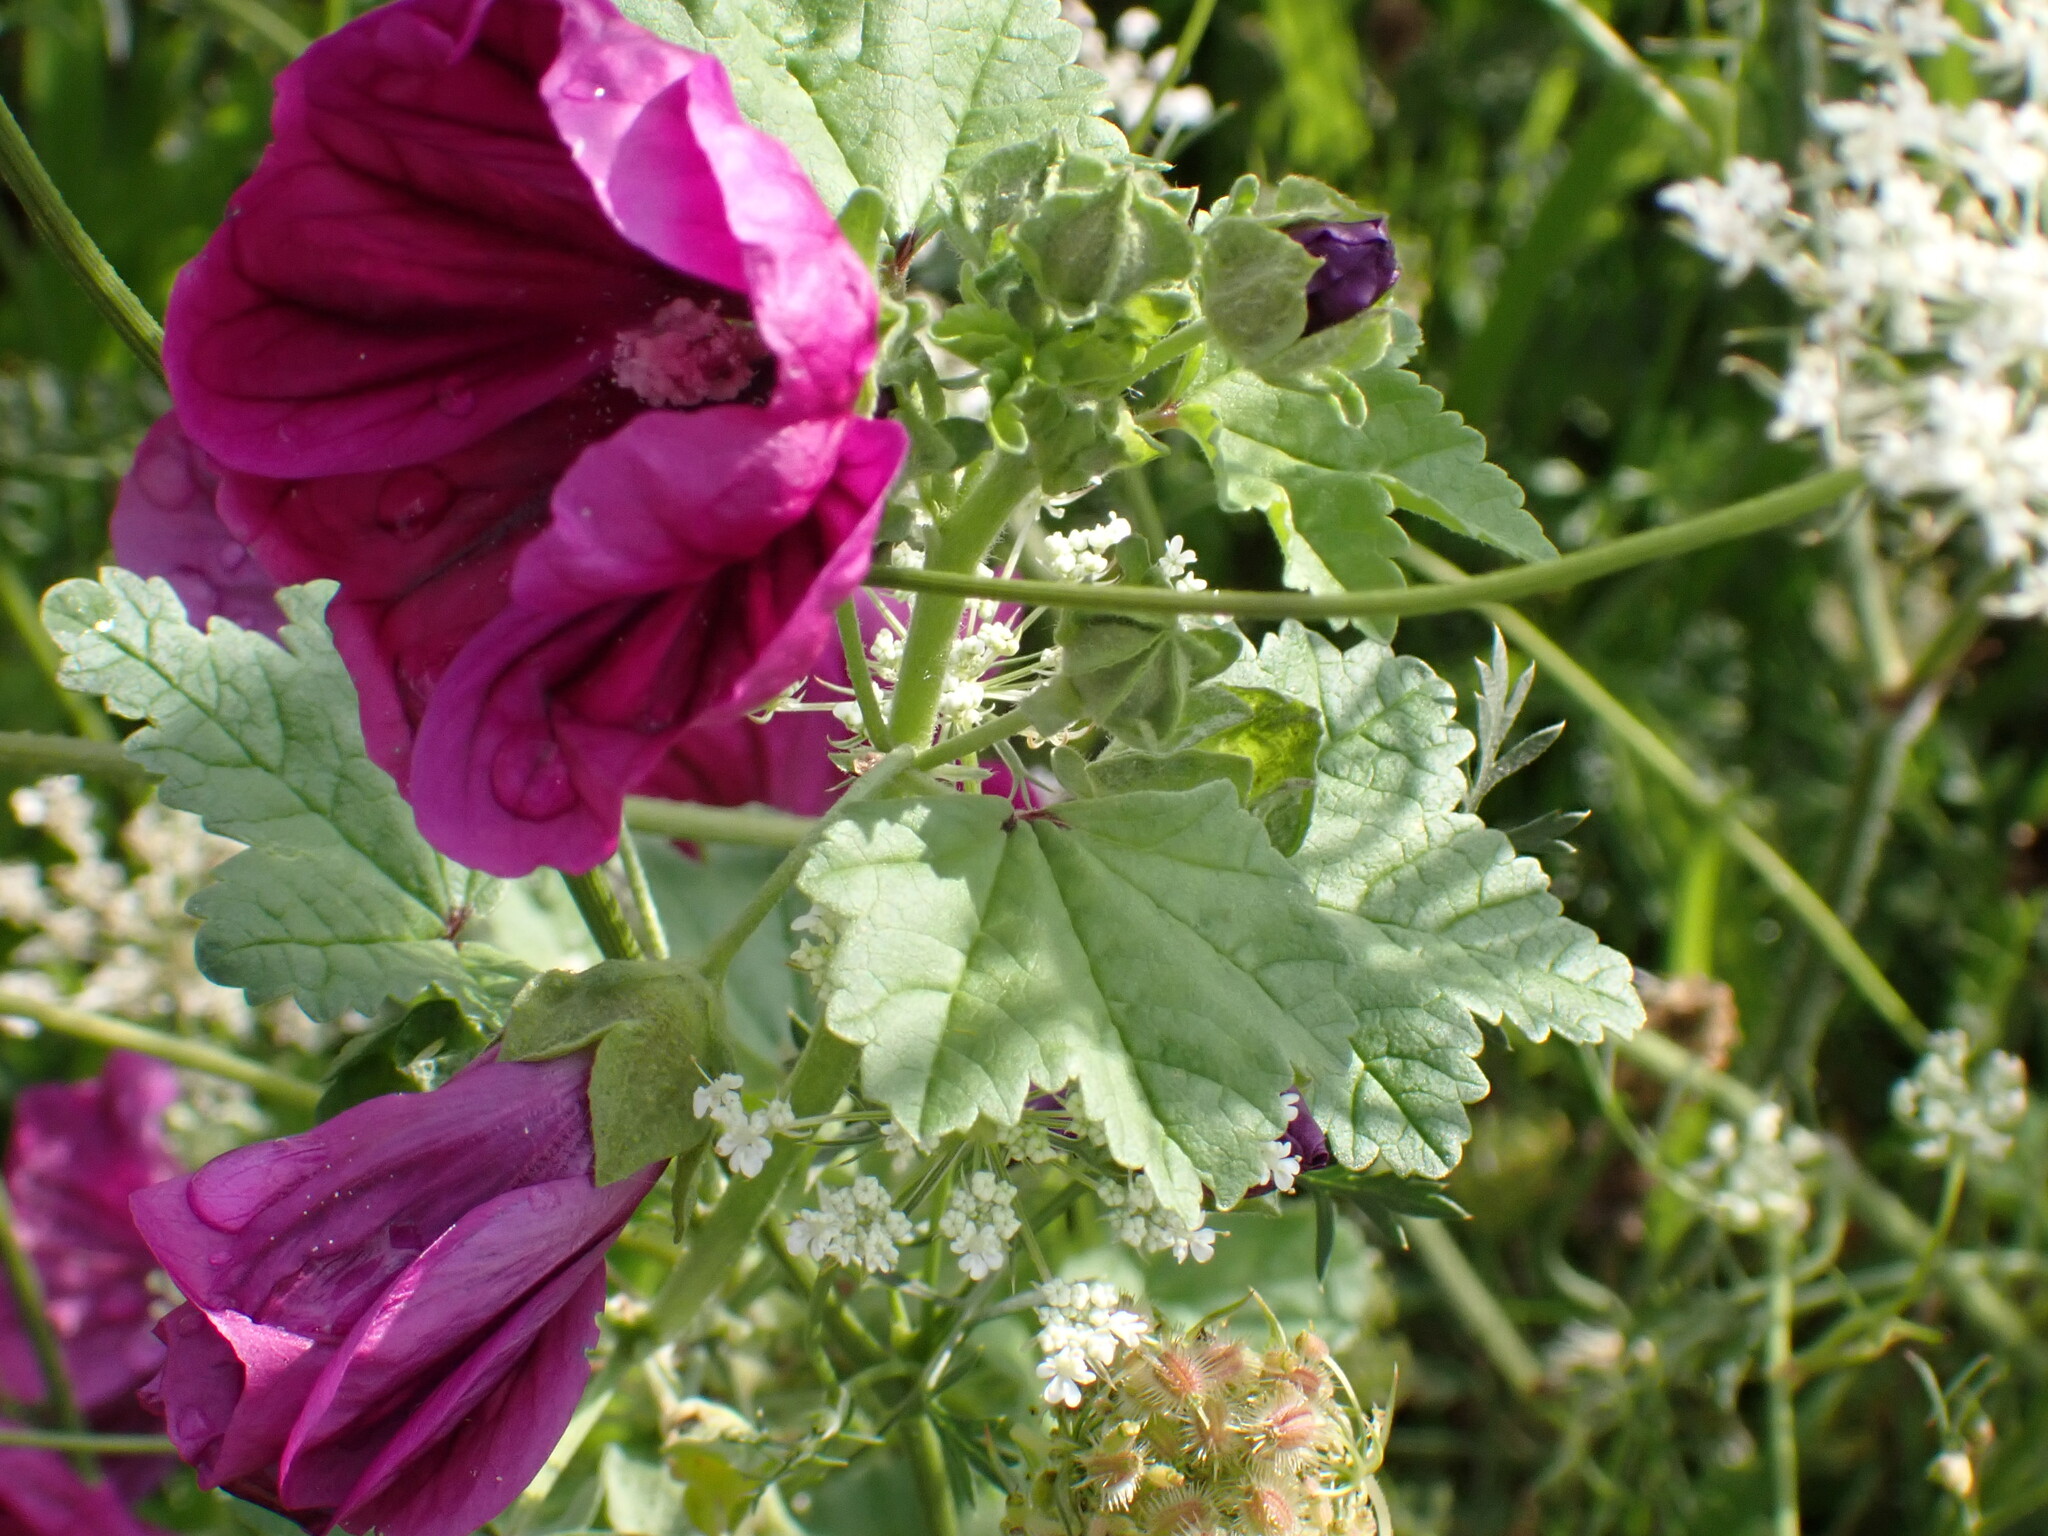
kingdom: Plantae
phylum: Tracheophyta
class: Magnoliopsida
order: Malvales
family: Malvaceae
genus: Malva
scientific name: Malva sylvestris
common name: Common mallow
